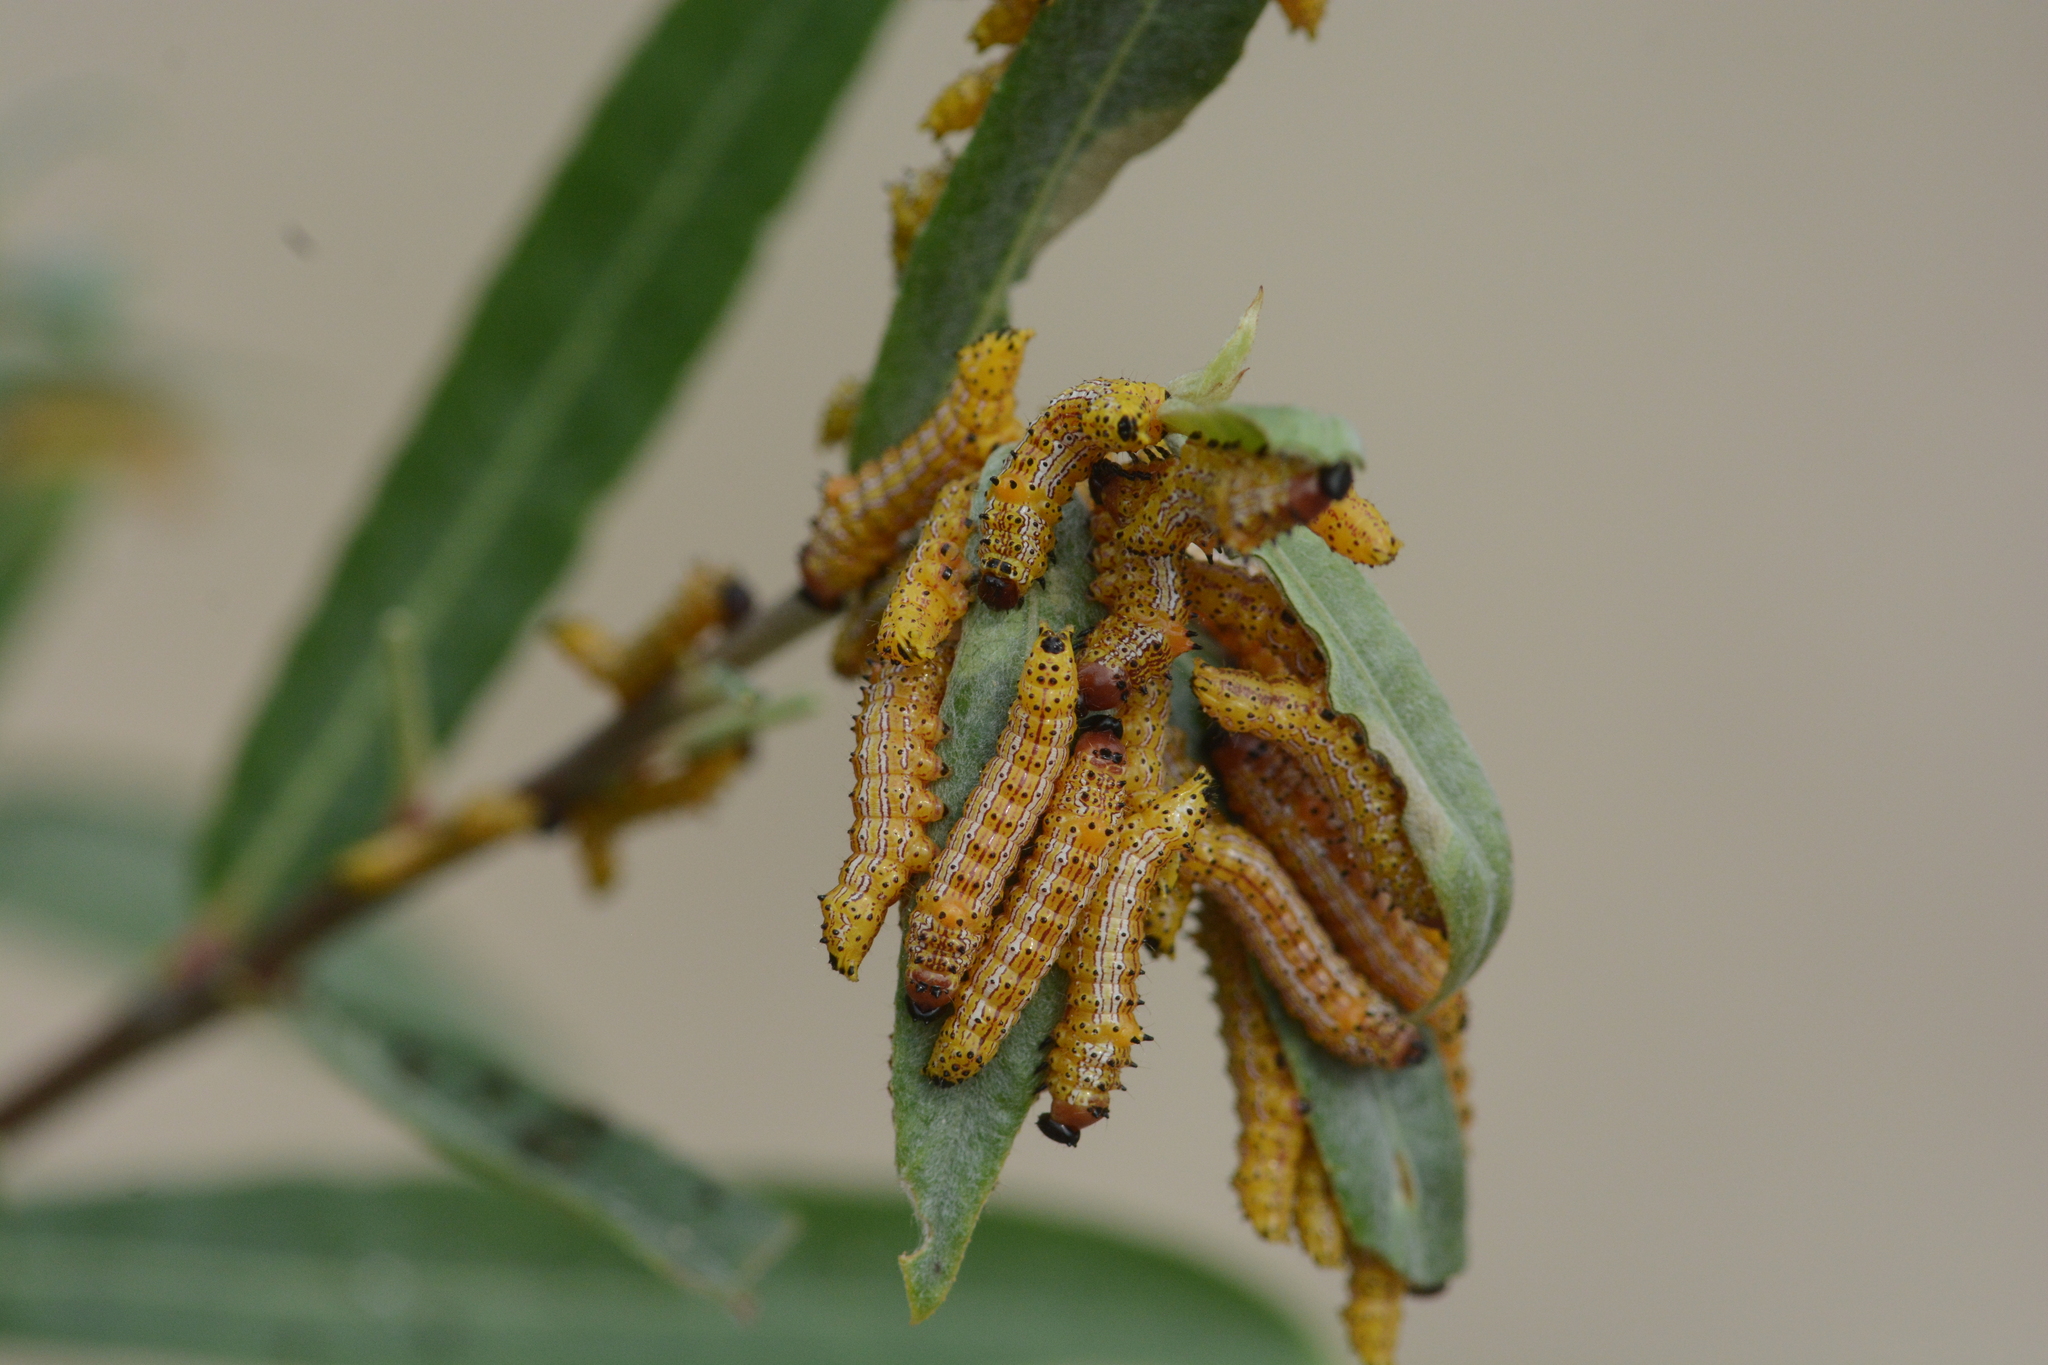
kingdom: Animalia
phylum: Arthropoda
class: Insecta
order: Lepidoptera
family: Notodontidae
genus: Schizura
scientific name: Schizura
